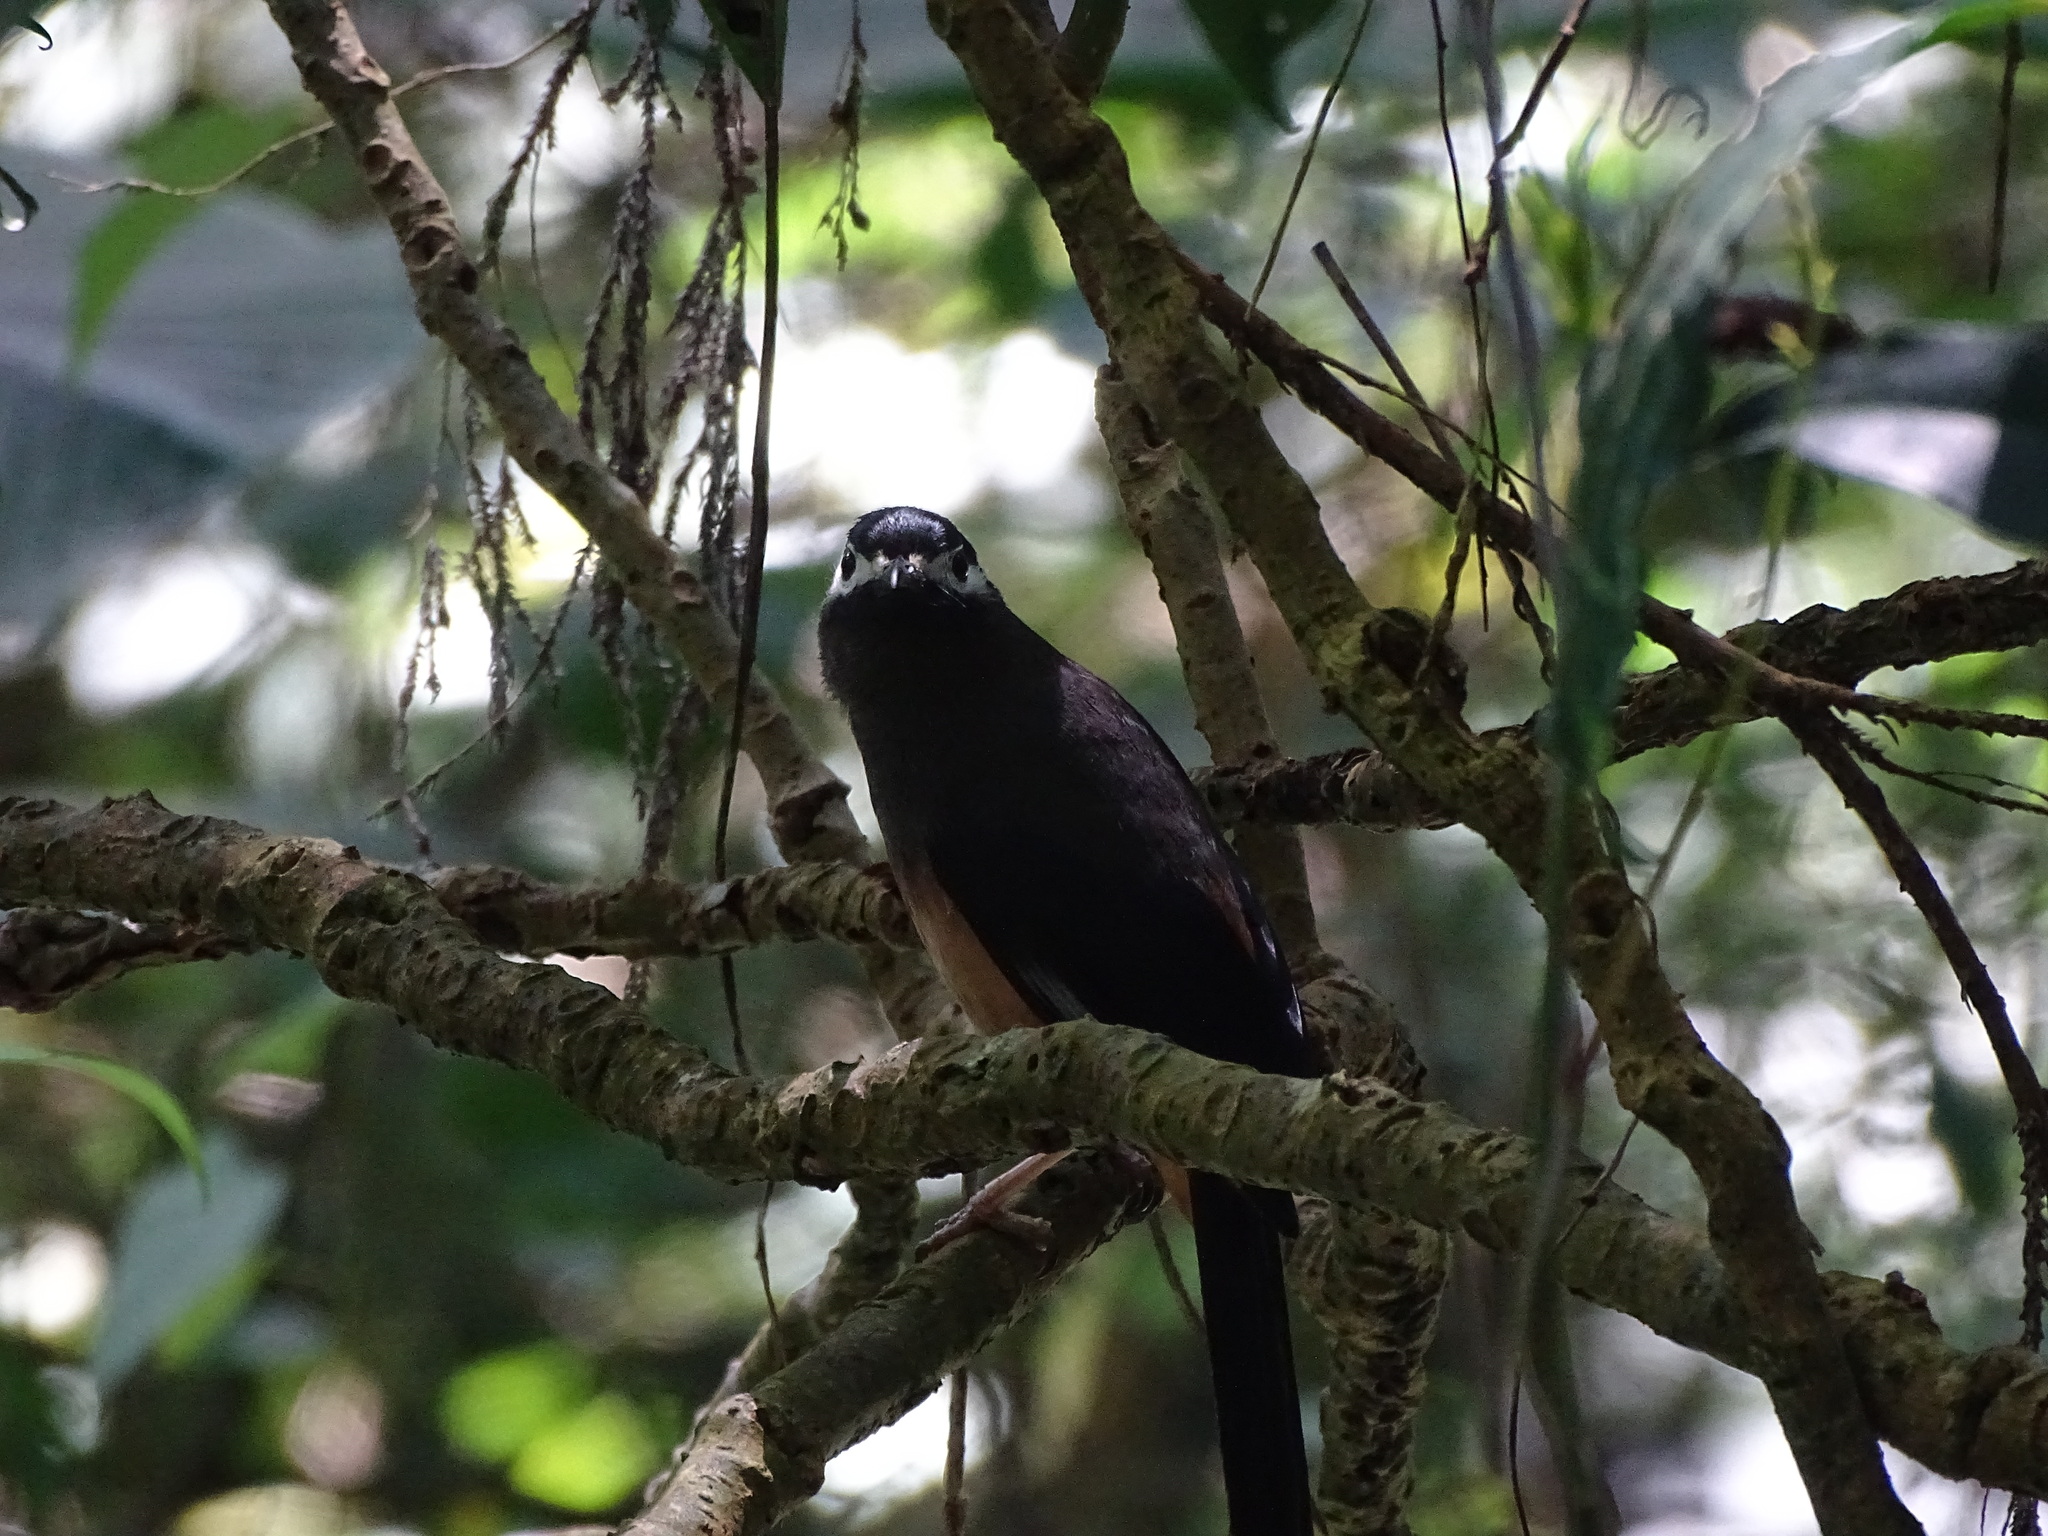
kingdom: Animalia
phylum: Chordata
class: Aves
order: Passeriformes
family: Leiothrichidae
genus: Heterophasia
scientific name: Heterophasia auricularis
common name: White-eared sibia
